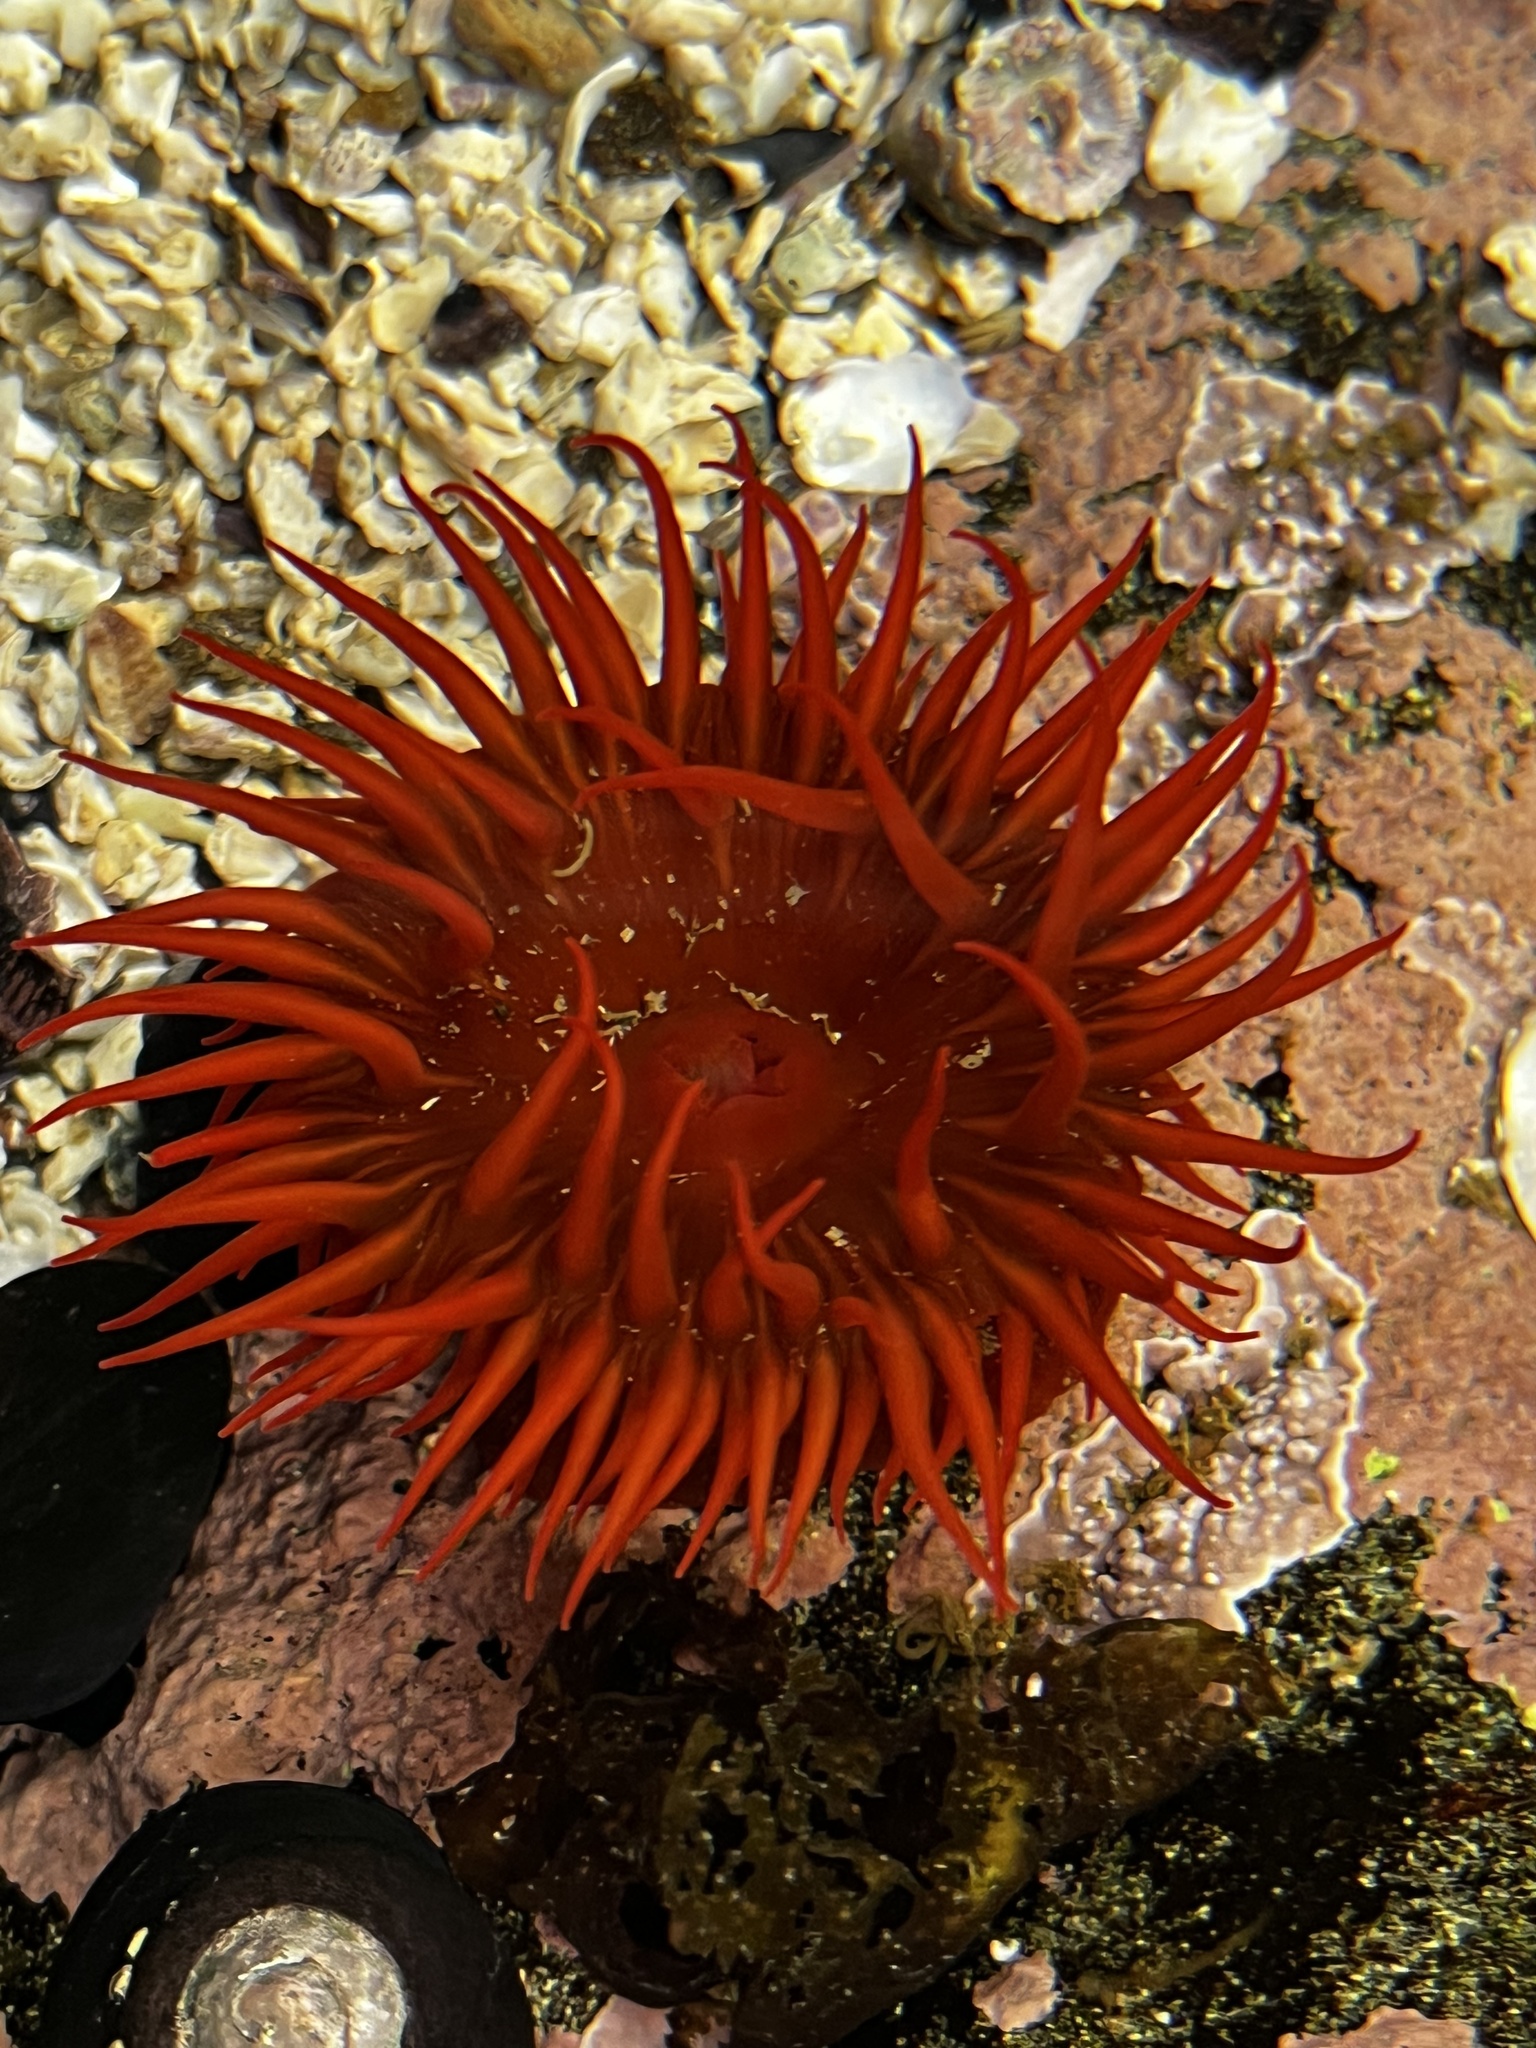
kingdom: Animalia
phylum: Cnidaria
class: Anthozoa
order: Actiniaria
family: Actiniidae
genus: Anemonia
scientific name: Anemonia alicemartinae
